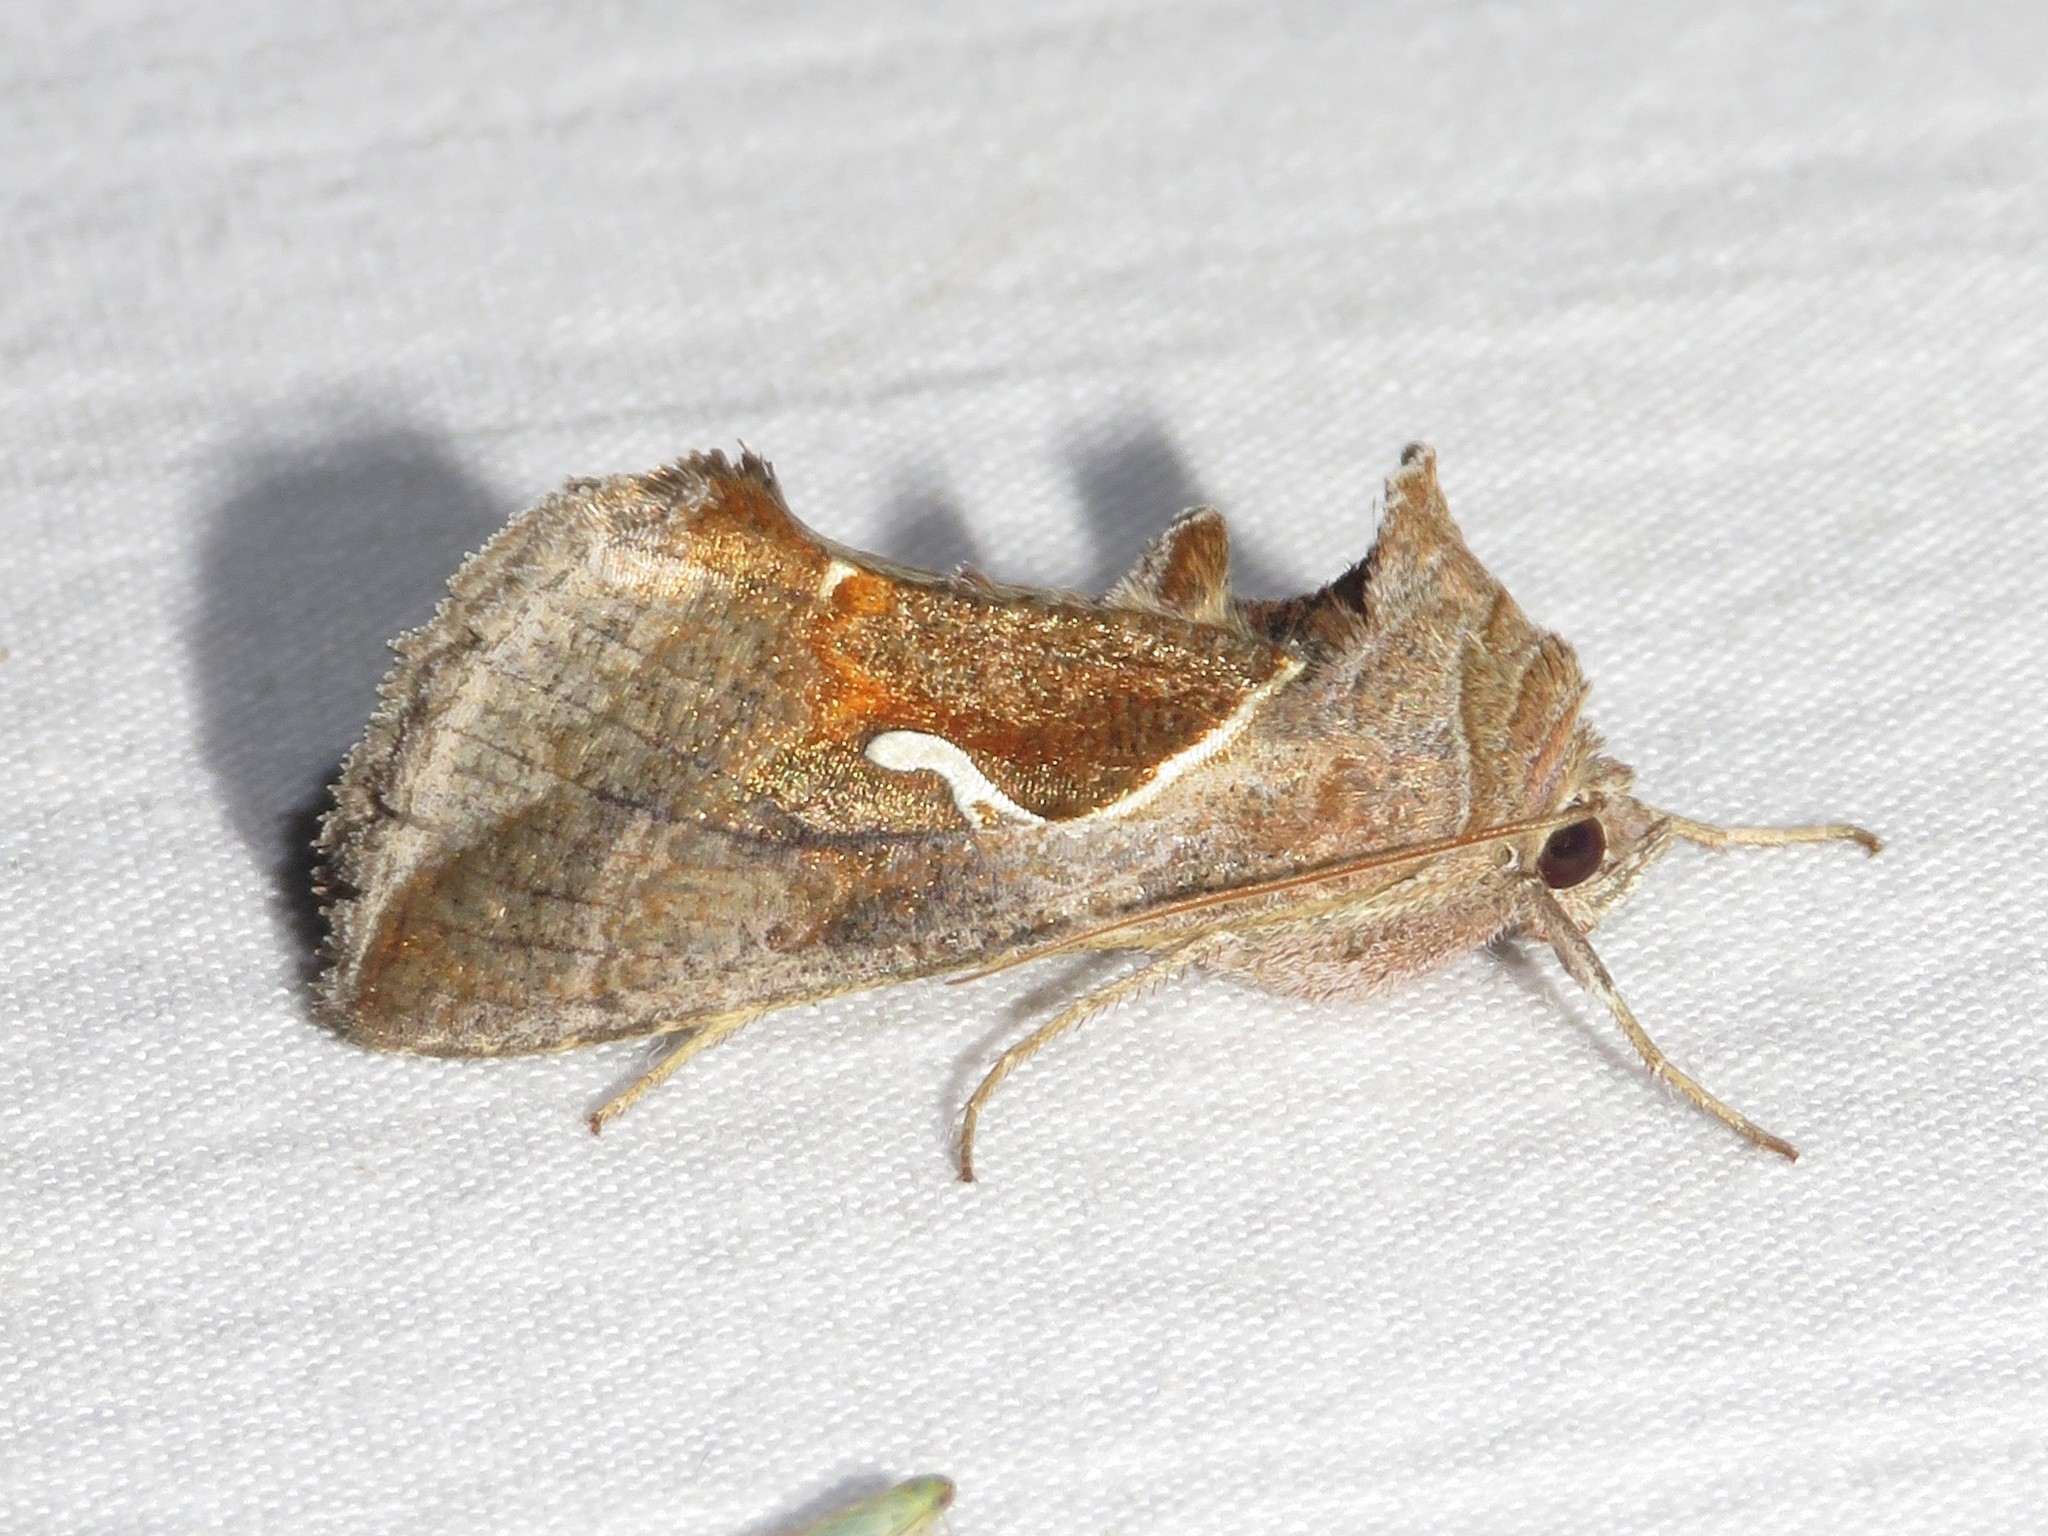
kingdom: Animalia
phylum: Arthropoda
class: Insecta
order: Lepidoptera
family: Noctuidae
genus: Anagrapha
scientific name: Anagrapha falcifera
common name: Celery looper
